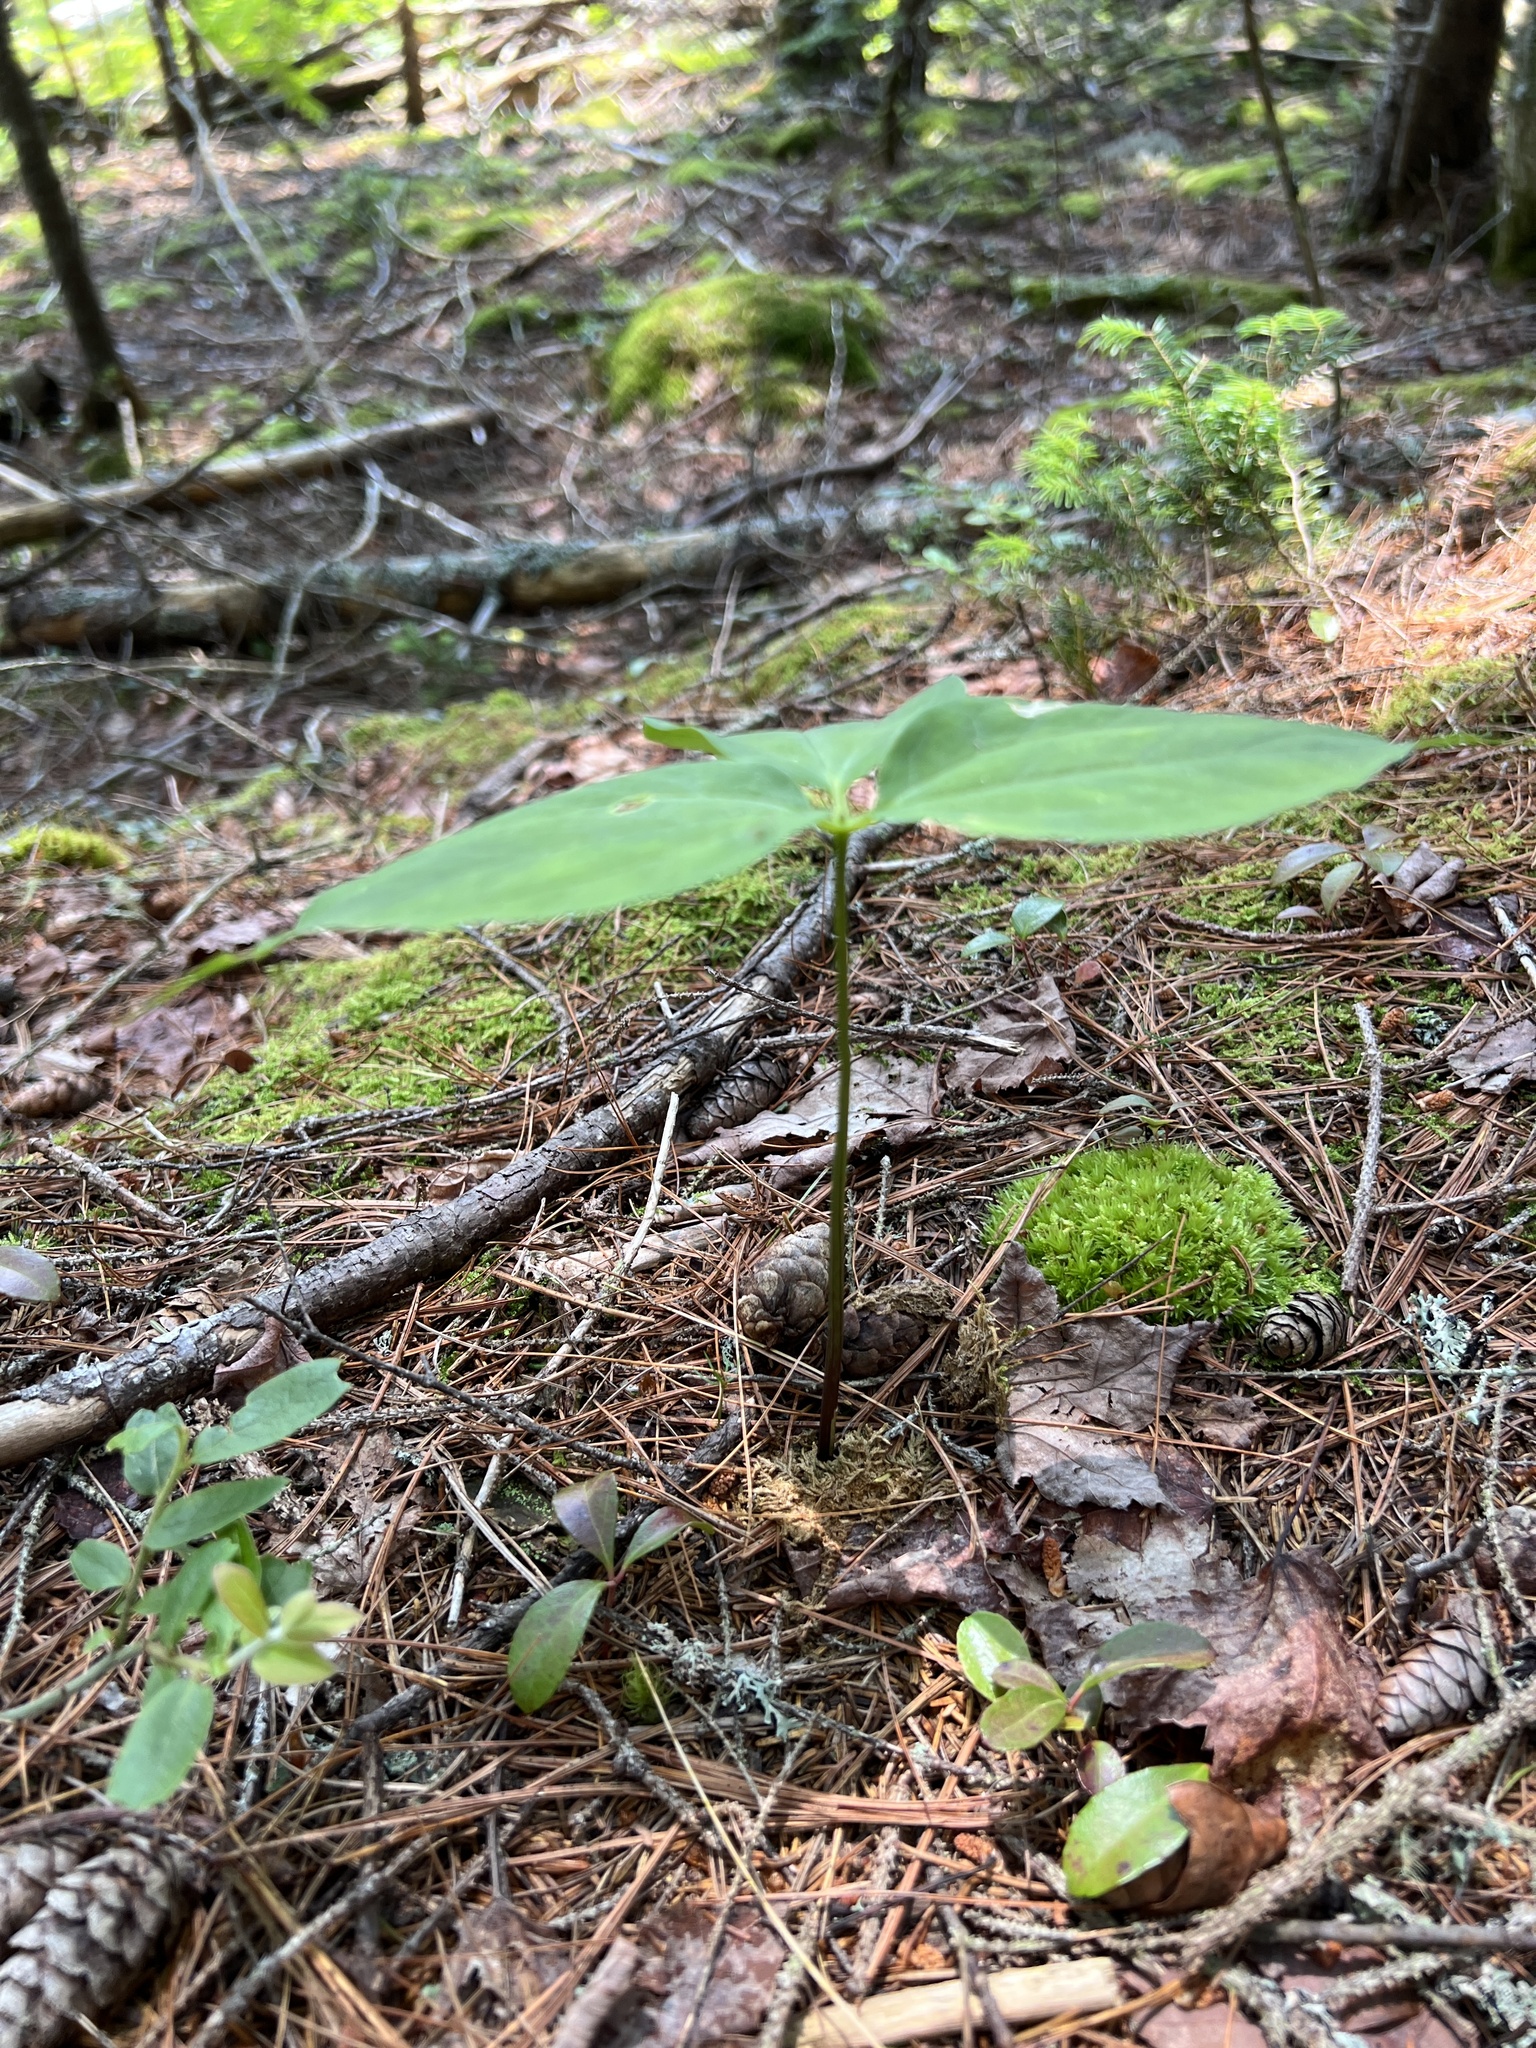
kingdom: Plantae
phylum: Tracheophyta
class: Liliopsida
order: Liliales
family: Melanthiaceae
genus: Trillium
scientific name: Trillium undulatum
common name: Paint trillium
